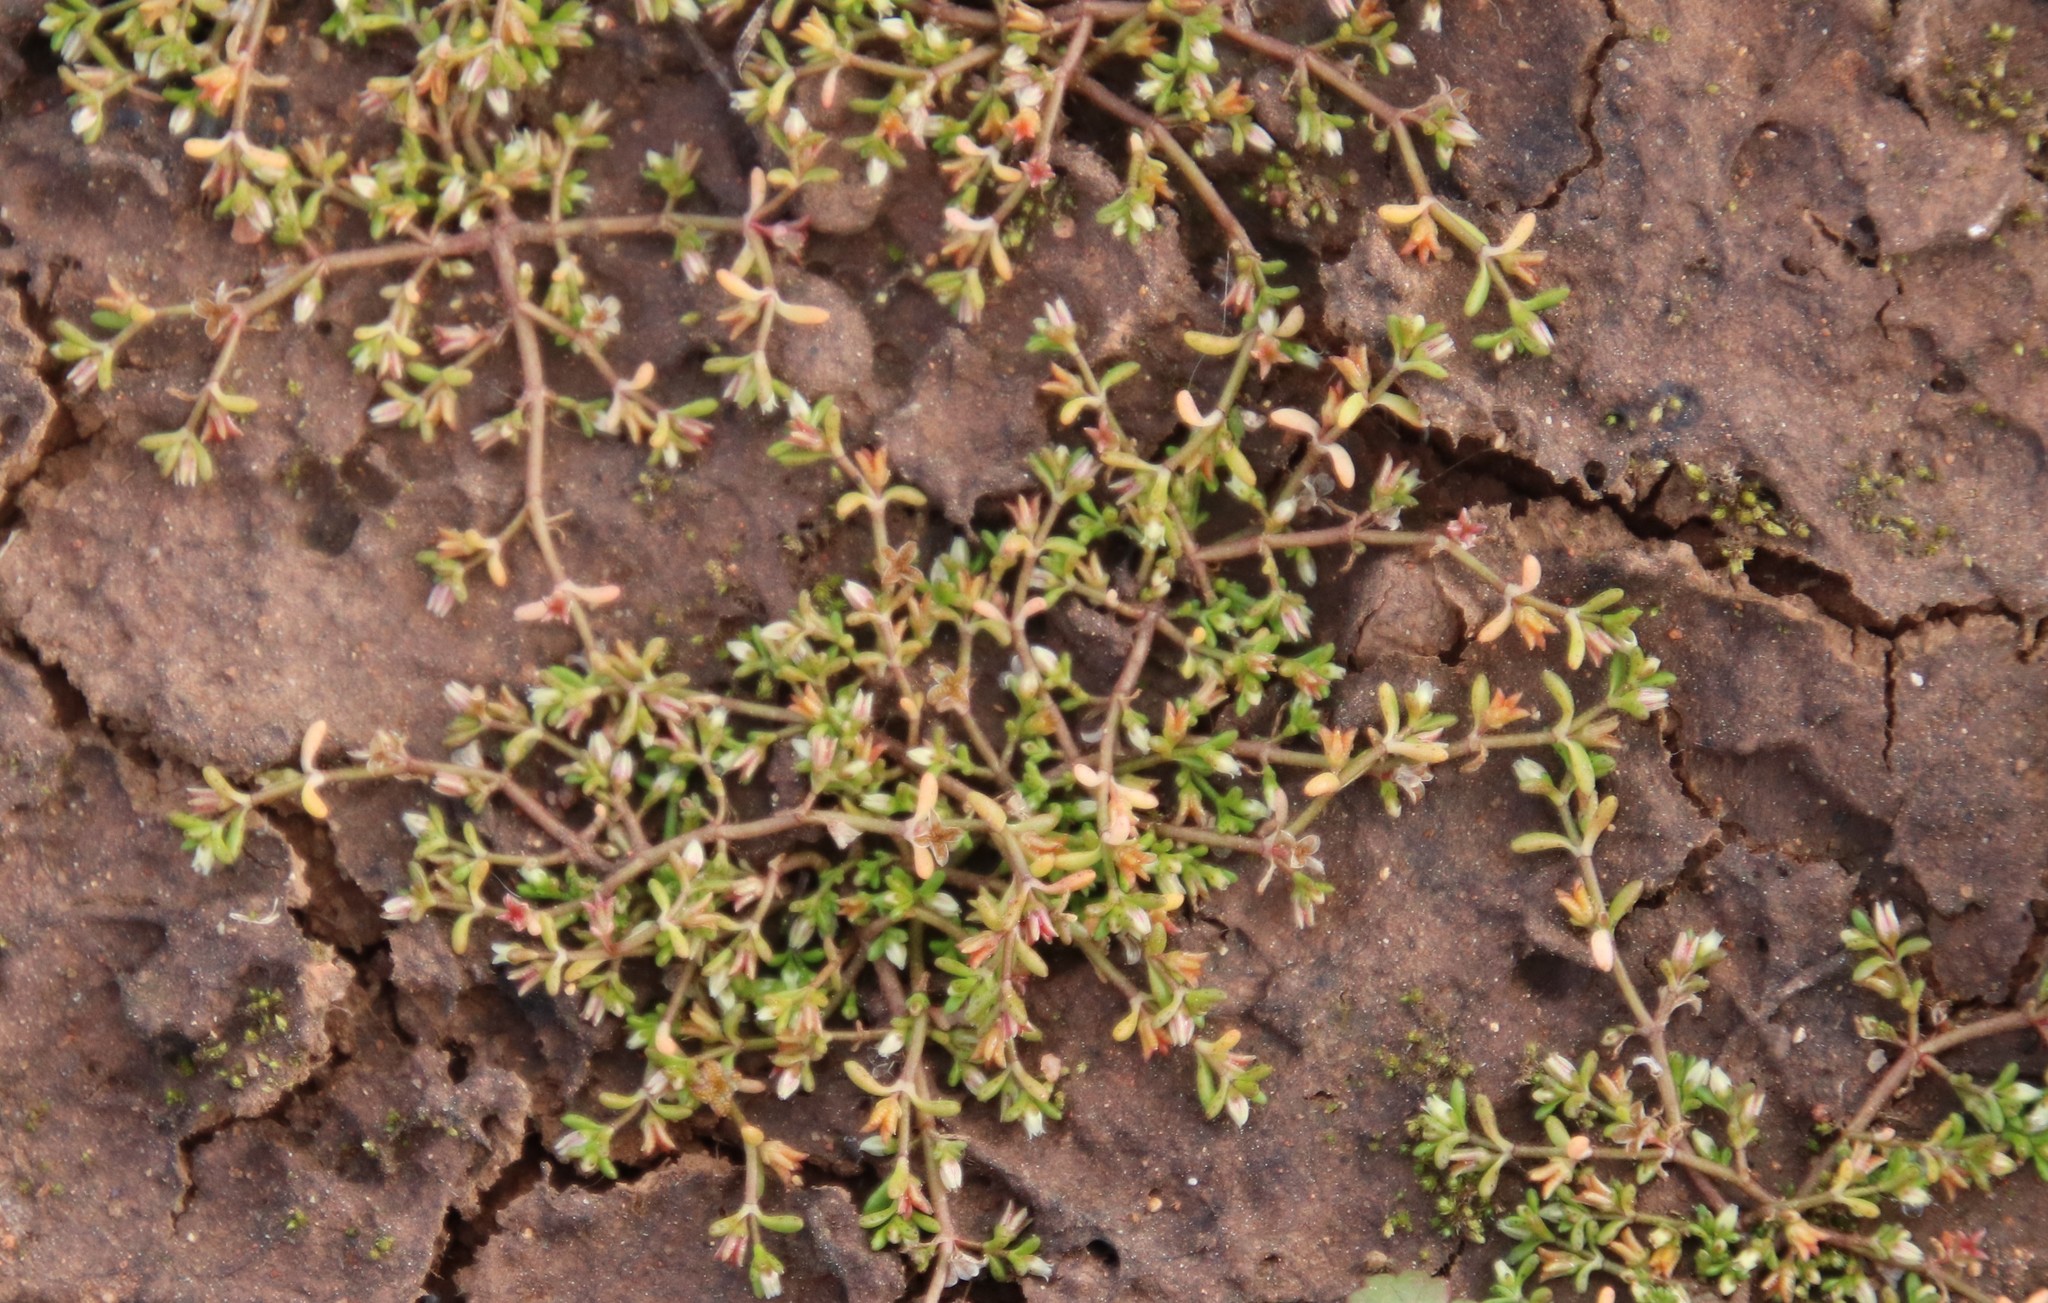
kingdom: Plantae
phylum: Tracheophyta
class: Magnoliopsida
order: Saxifragales
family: Crassulaceae
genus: Crassula
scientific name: Crassula solieri
